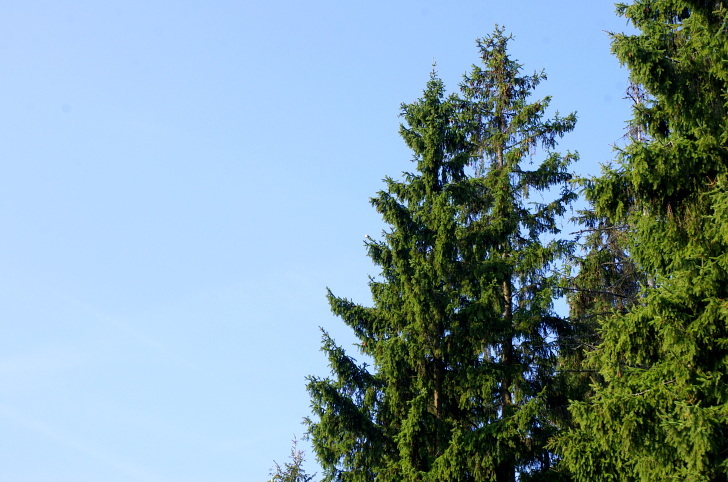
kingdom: Plantae
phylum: Tracheophyta
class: Pinopsida
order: Pinales
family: Pinaceae
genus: Picea
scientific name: Picea abies
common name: Norway spruce
